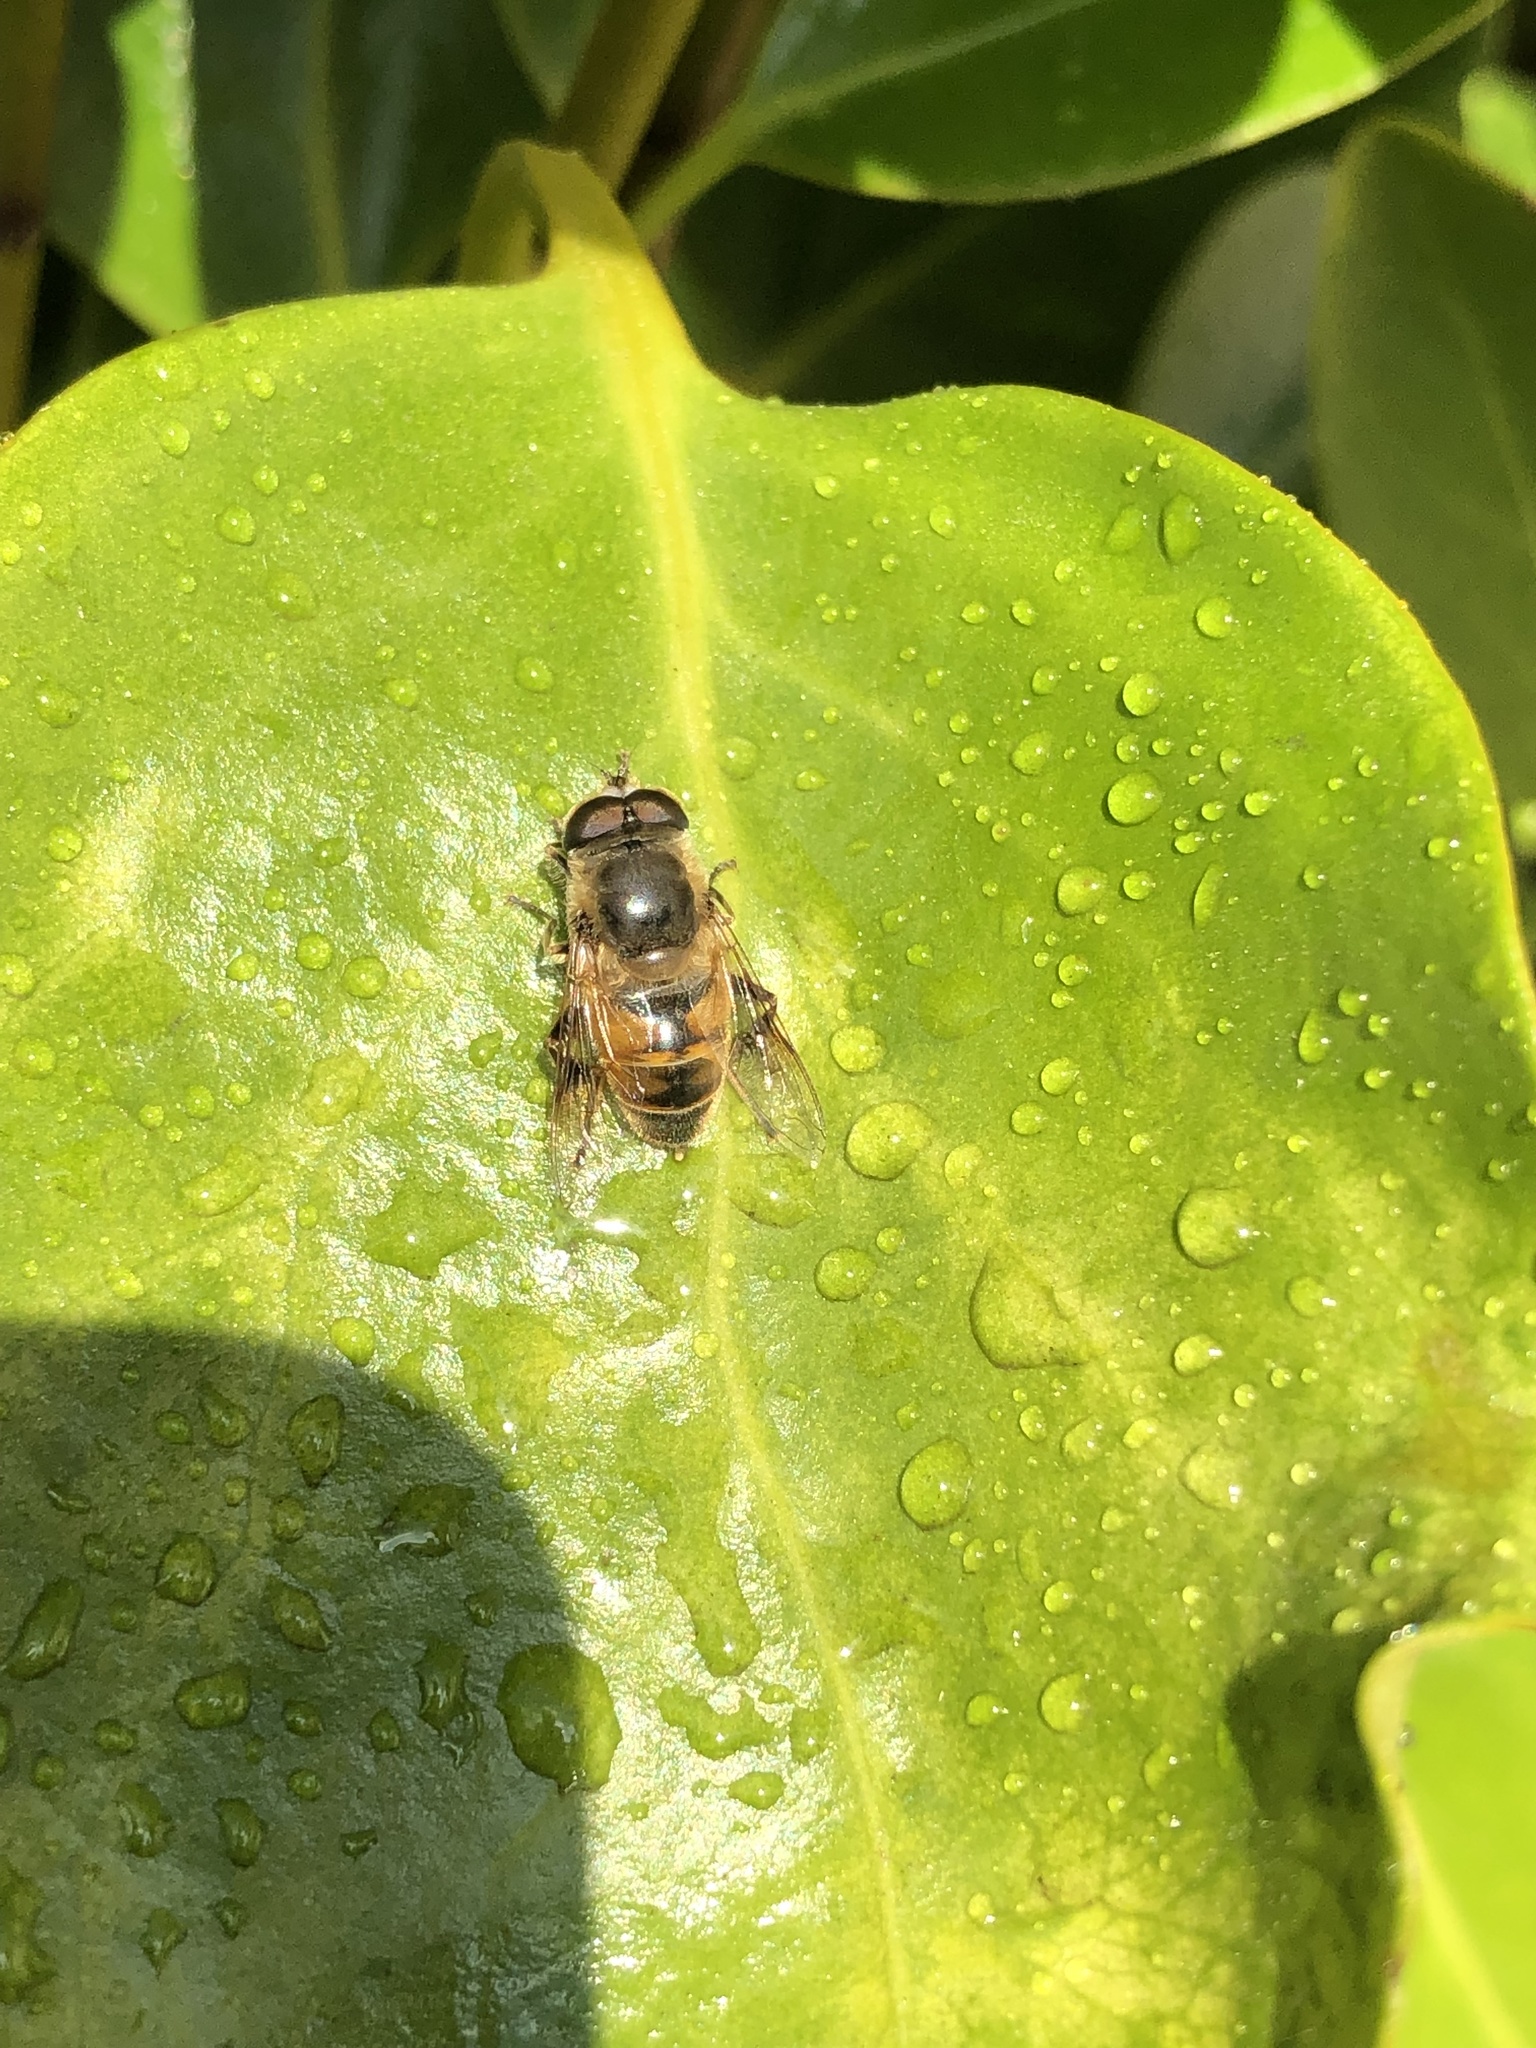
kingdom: Animalia
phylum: Arthropoda
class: Insecta
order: Diptera
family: Syrphidae
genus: Eristalis
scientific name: Eristalis tenax
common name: Drone fly
